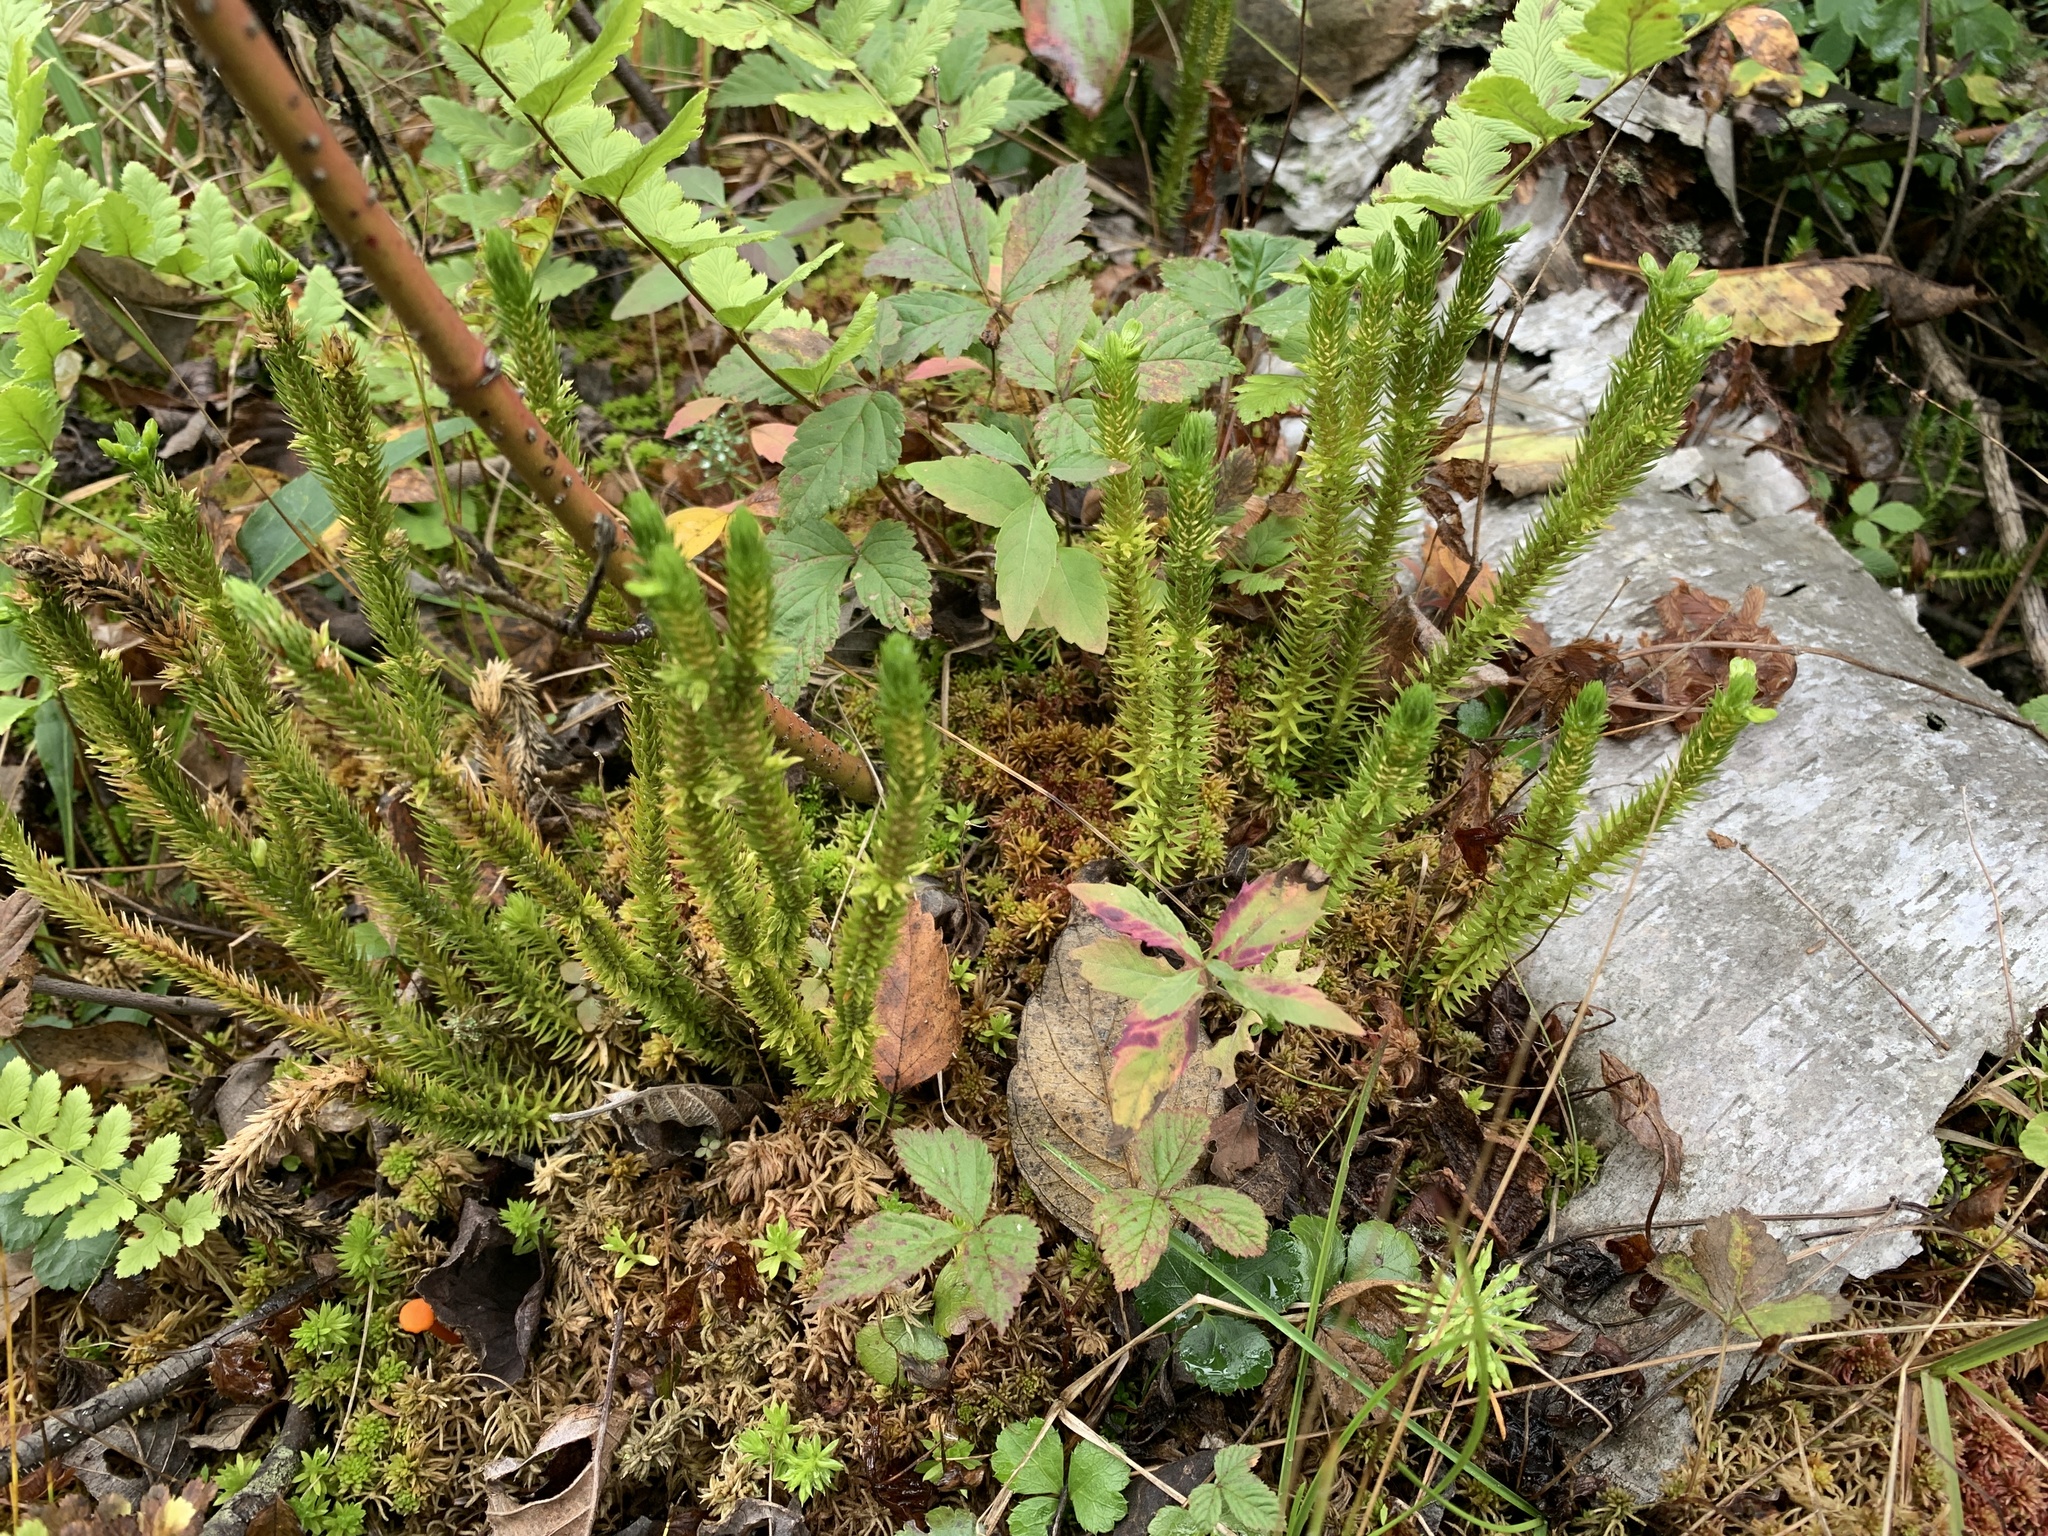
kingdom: Plantae
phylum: Tracheophyta
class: Lycopodiopsida
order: Lycopodiales
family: Lycopodiaceae
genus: Huperzia
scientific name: Huperzia selago
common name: Northern firmoss
